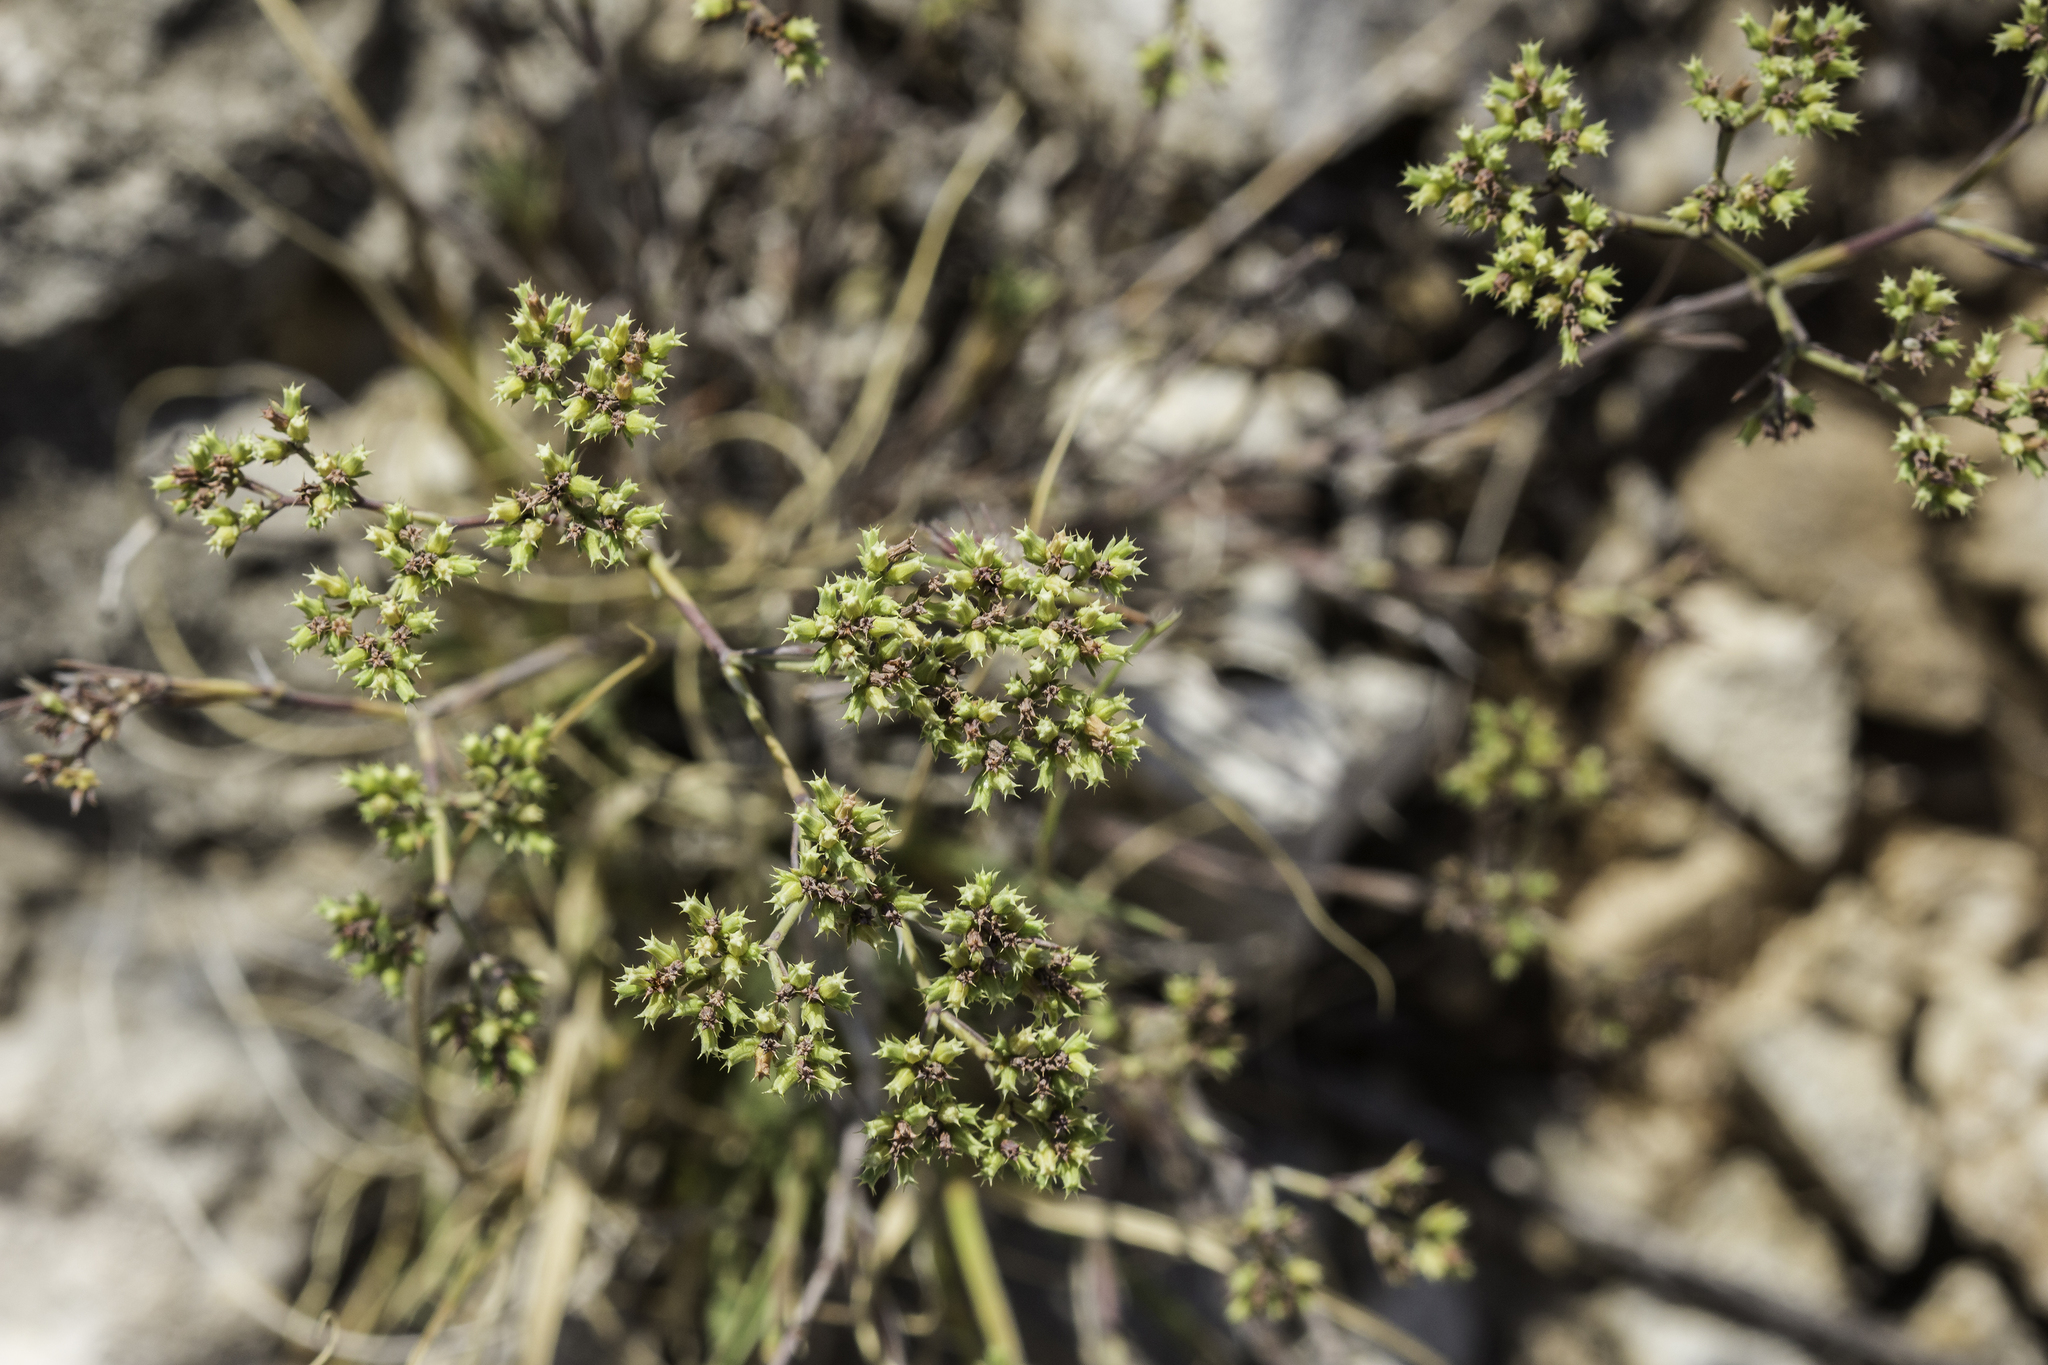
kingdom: Plantae
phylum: Tracheophyta
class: Magnoliopsida
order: Caryophyllales
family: Caryophyllaceae
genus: Paronychia
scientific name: Paronychia jamesii
